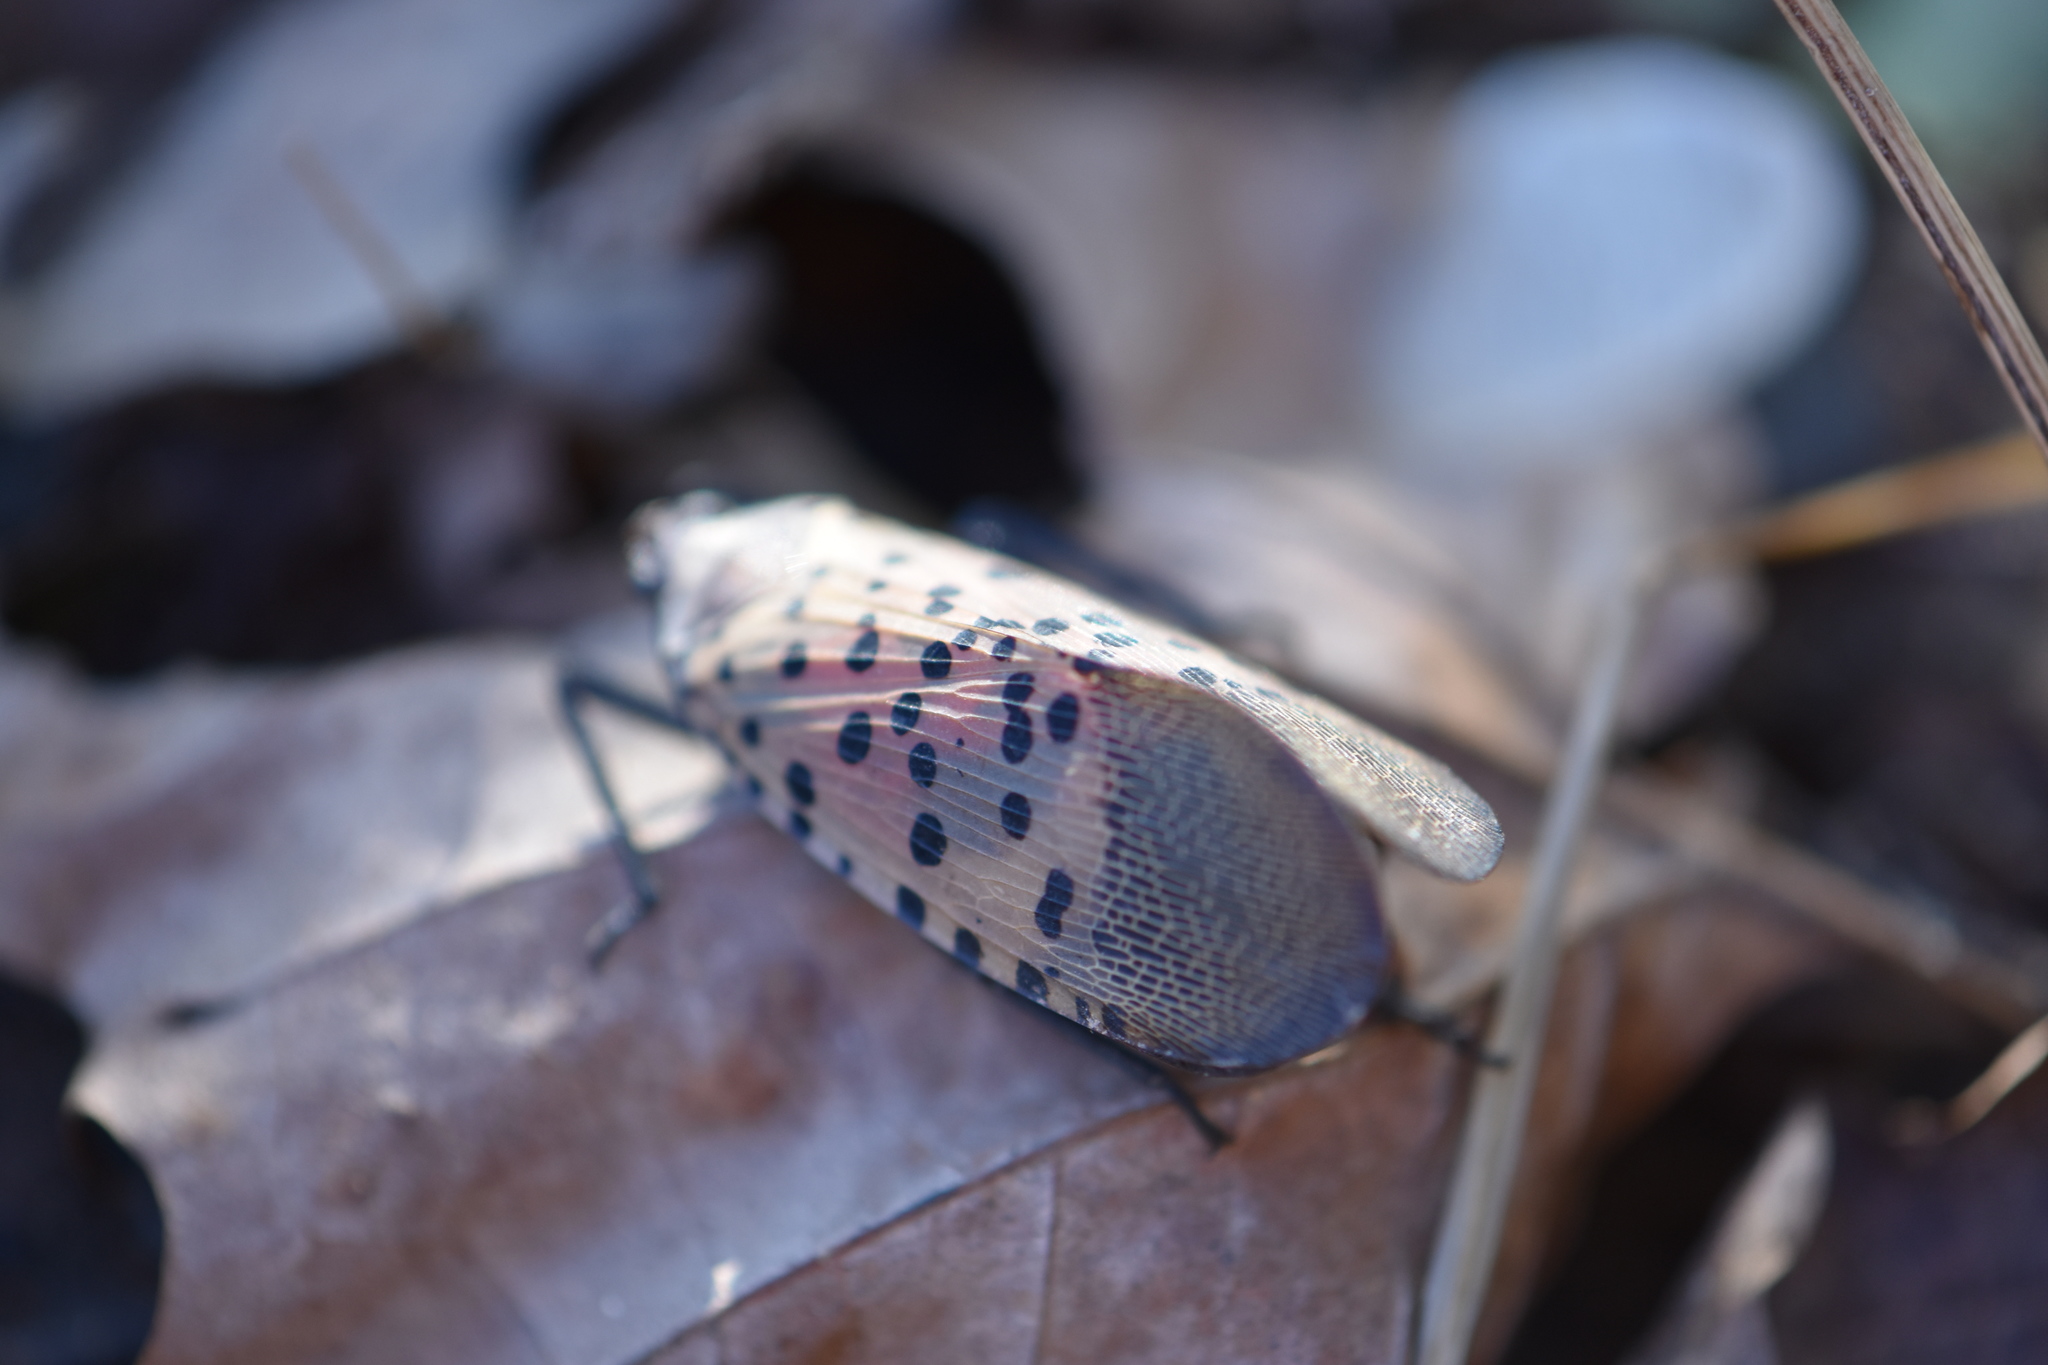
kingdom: Animalia
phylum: Arthropoda
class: Insecta
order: Hemiptera
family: Fulgoridae
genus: Lycorma
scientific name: Lycorma delicatula
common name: Spotted lanternfly
